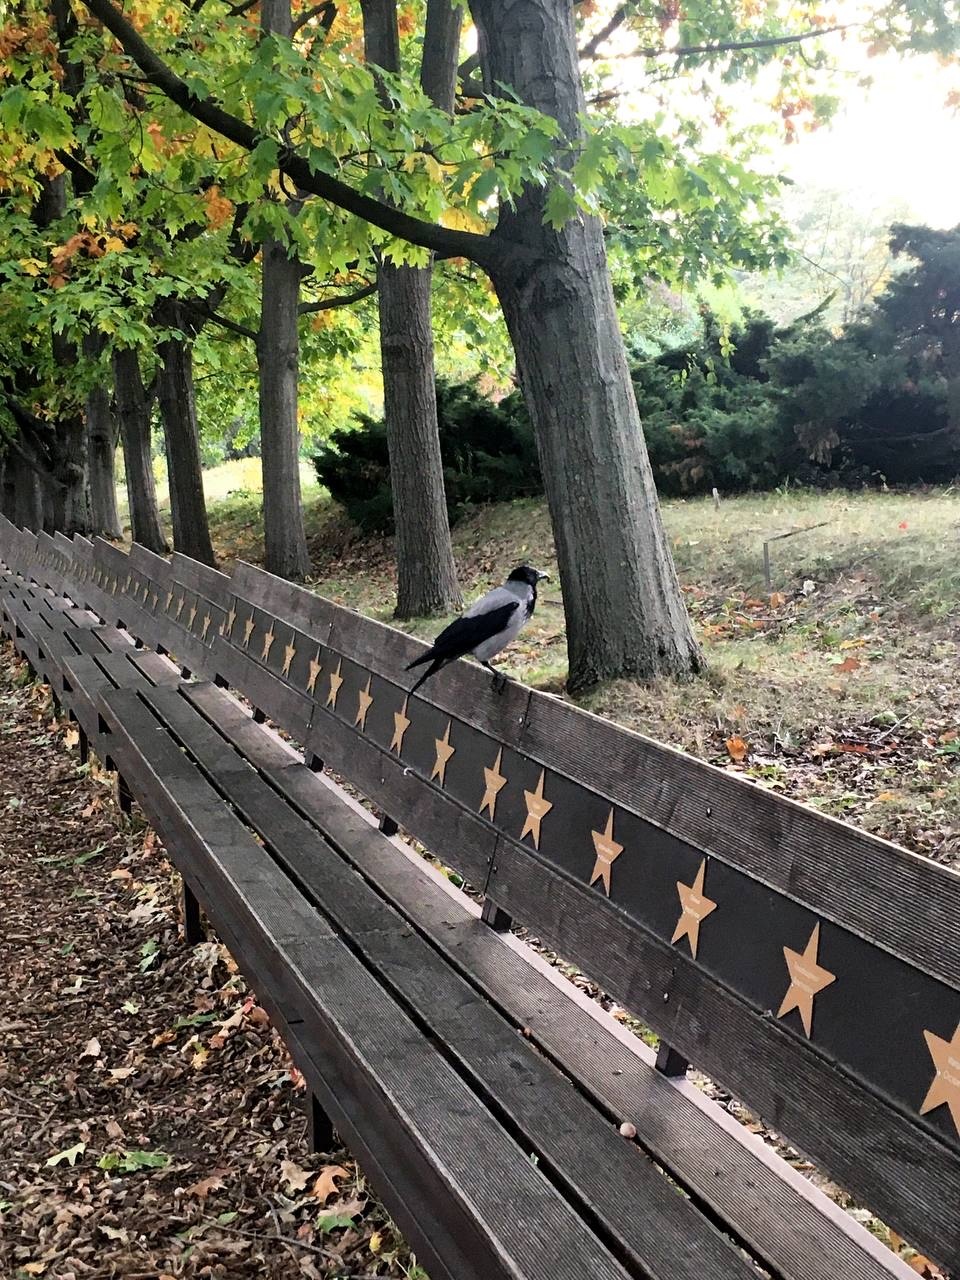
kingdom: Animalia
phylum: Chordata
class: Aves
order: Passeriformes
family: Corvidae
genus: Corvus
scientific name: Corvus cornix
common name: Hooded crow
